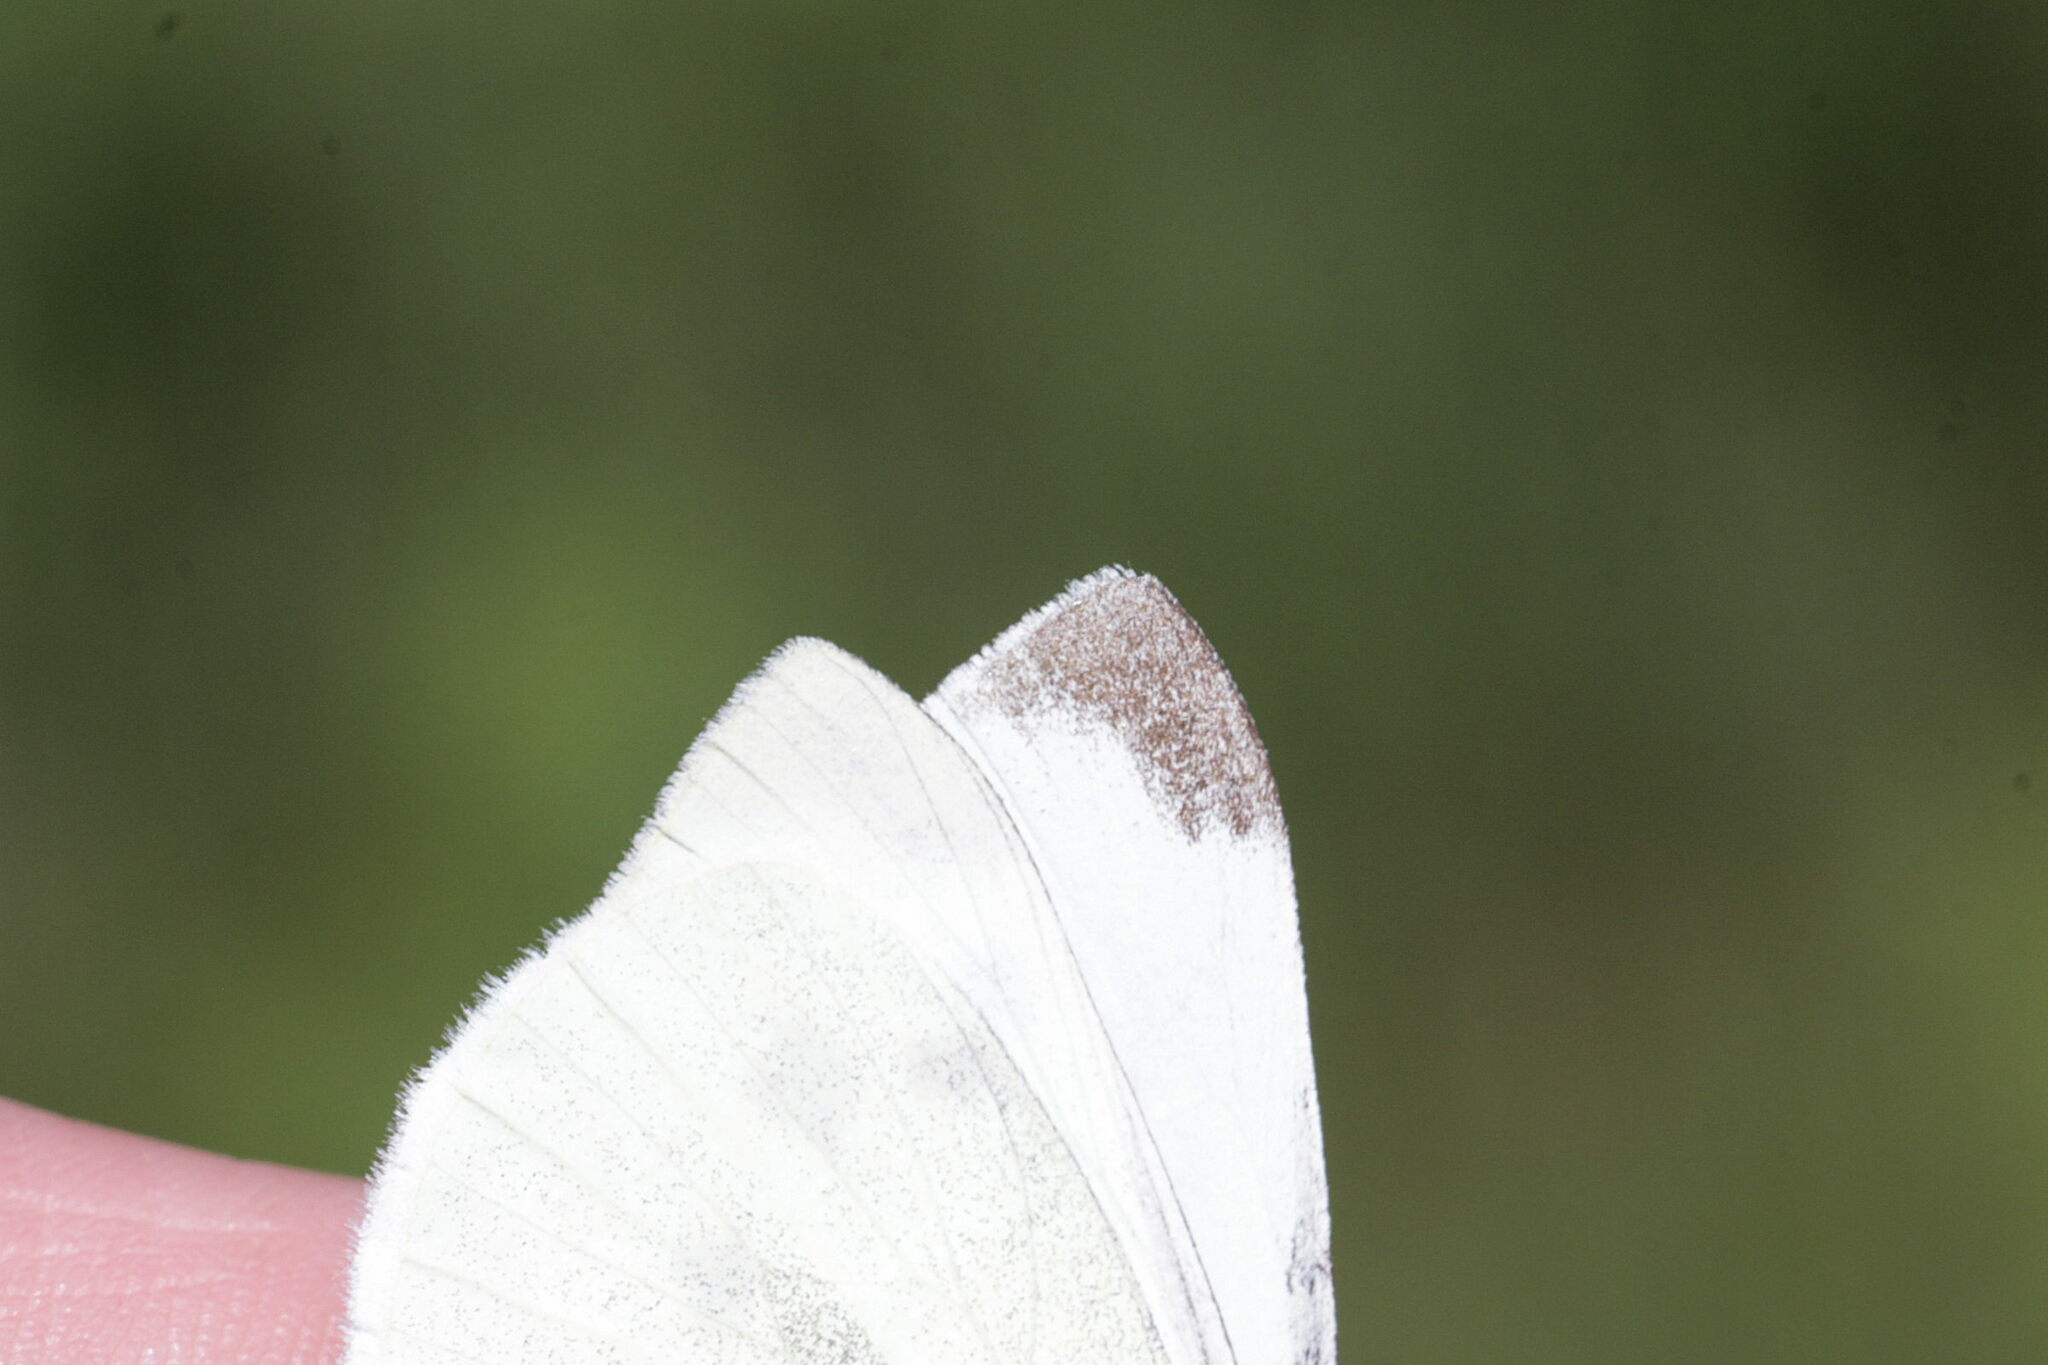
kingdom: Animalia
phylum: Arthropoda
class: Insecta
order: Lepidoptera
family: Pieridae
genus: Pieris
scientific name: Pieris rapae
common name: Small white
